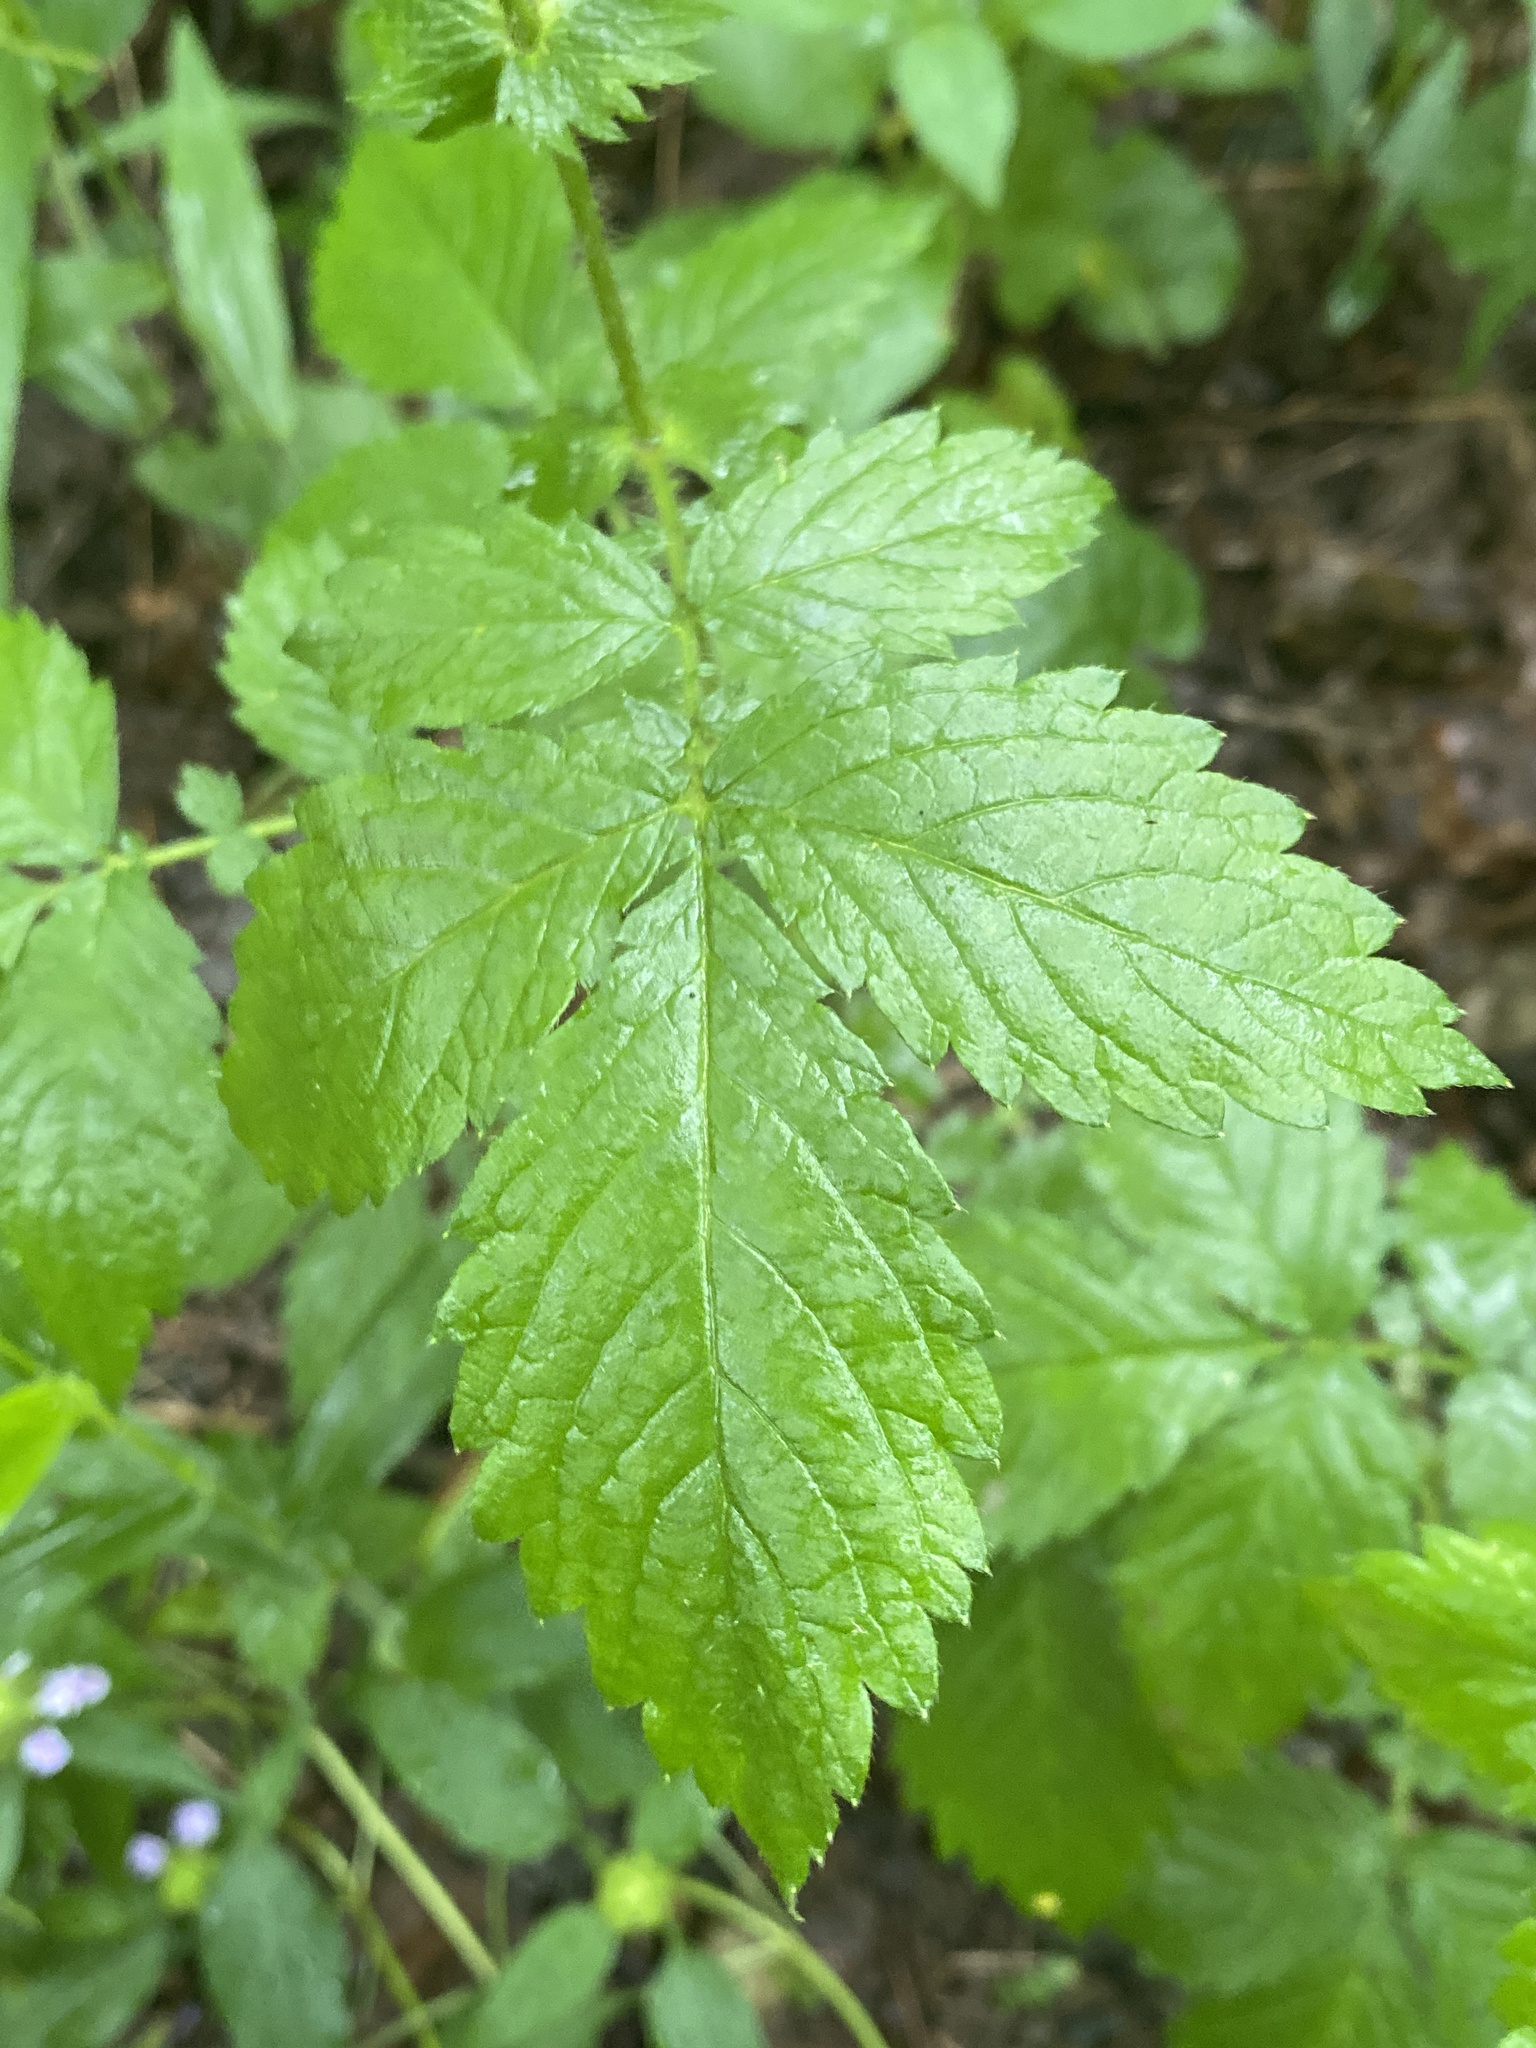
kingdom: Plantae
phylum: Tracheophyta
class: Magnoliopsida
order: Rosales
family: Rosaceae
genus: Agrimonia
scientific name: Agrimonia gryposepala
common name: Common agrimony
